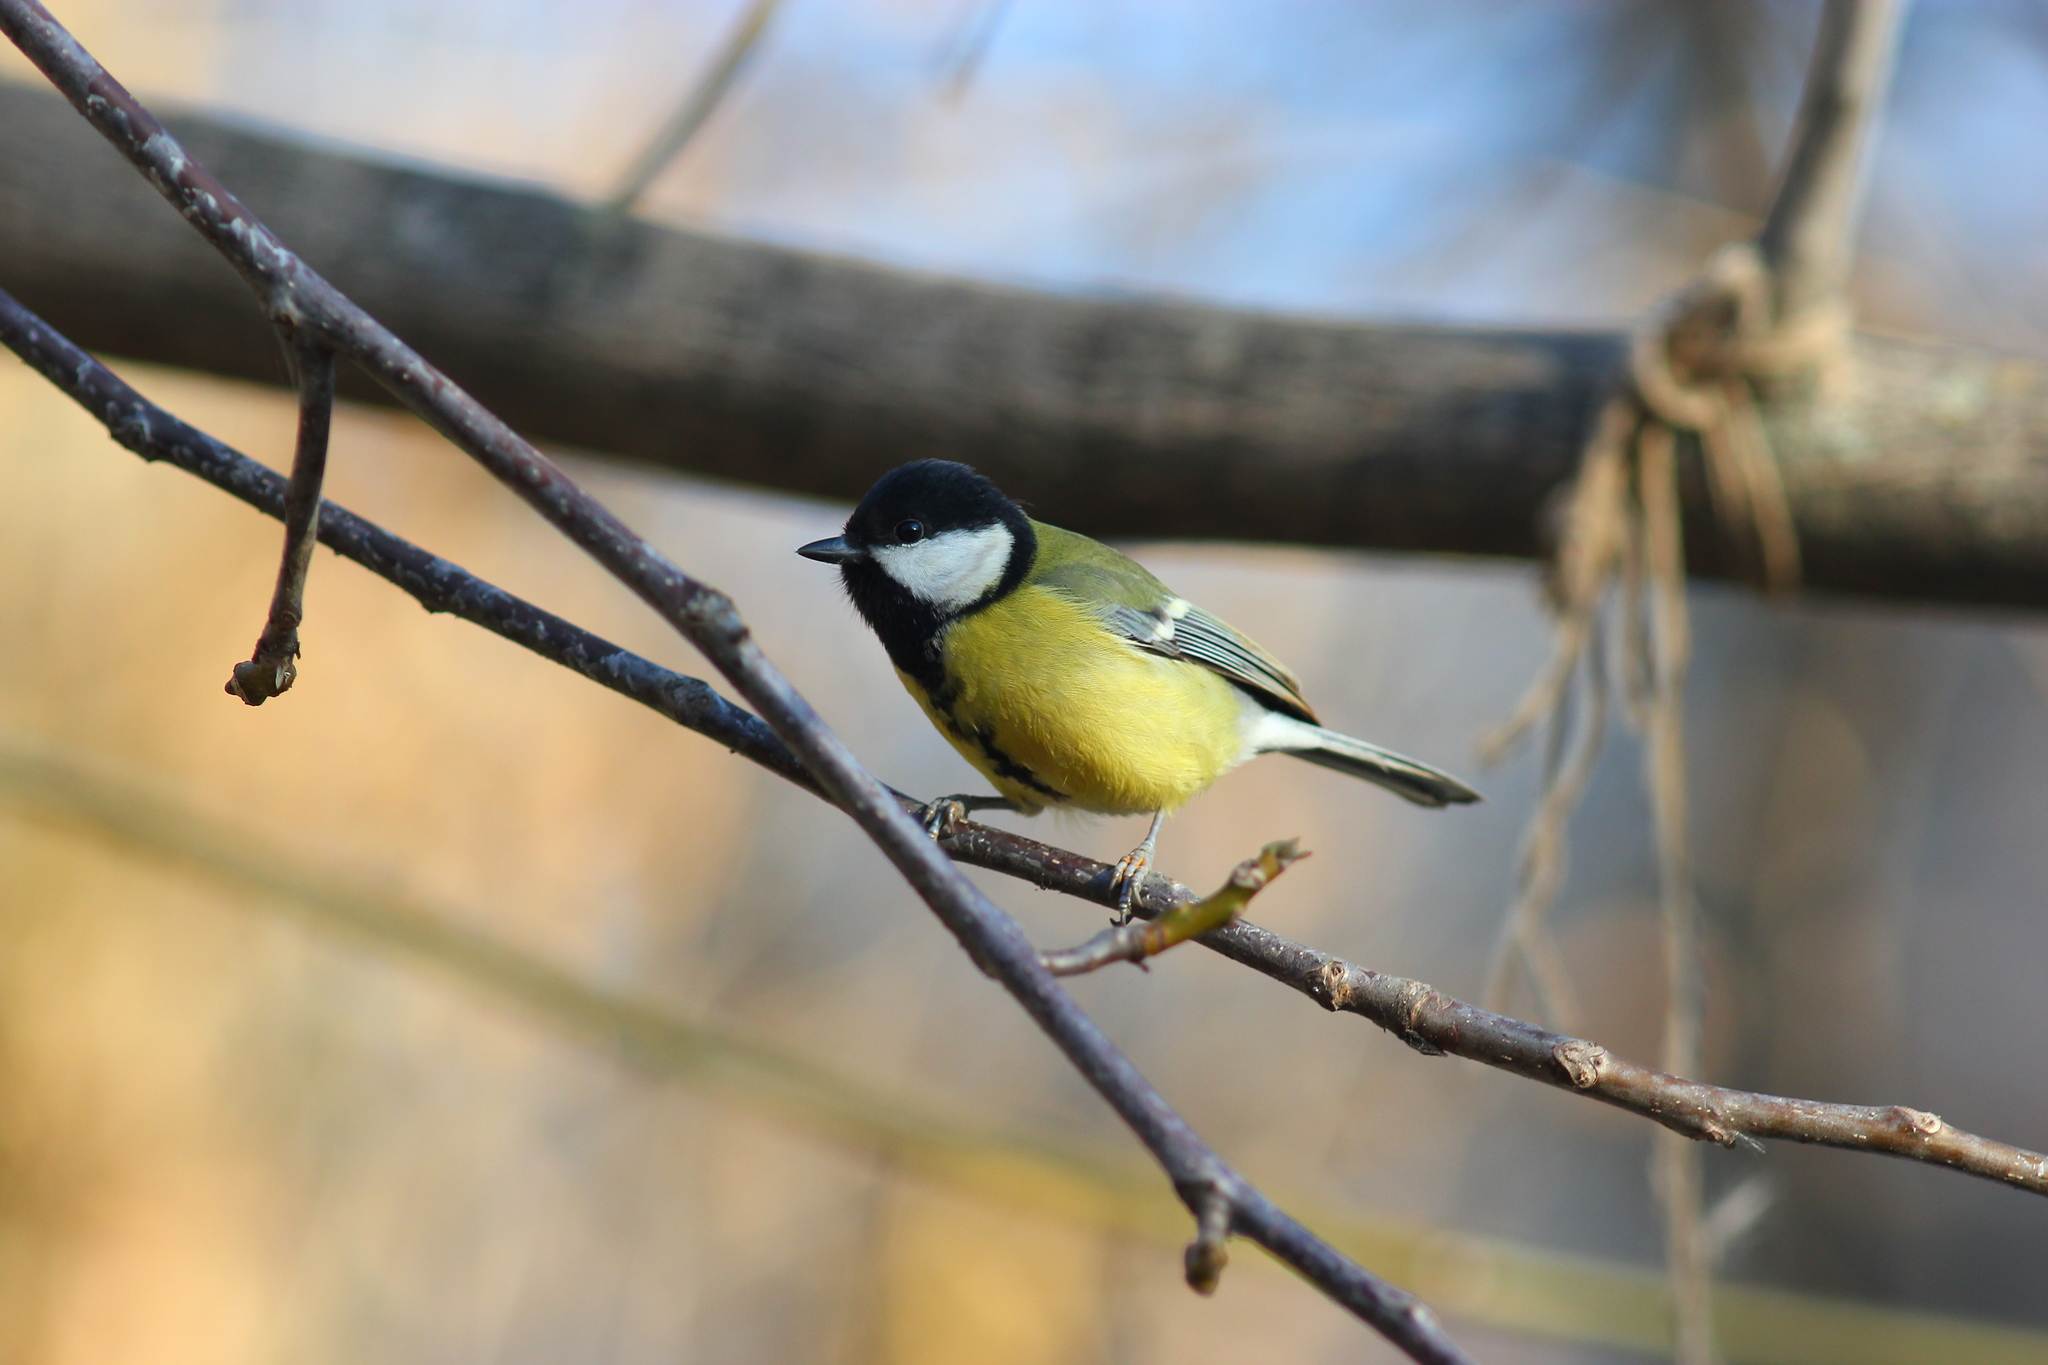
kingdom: Animalia
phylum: Chordata
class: Aves
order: Passeriformes
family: Paridae
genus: Parus
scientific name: Parus major
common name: Great tit
